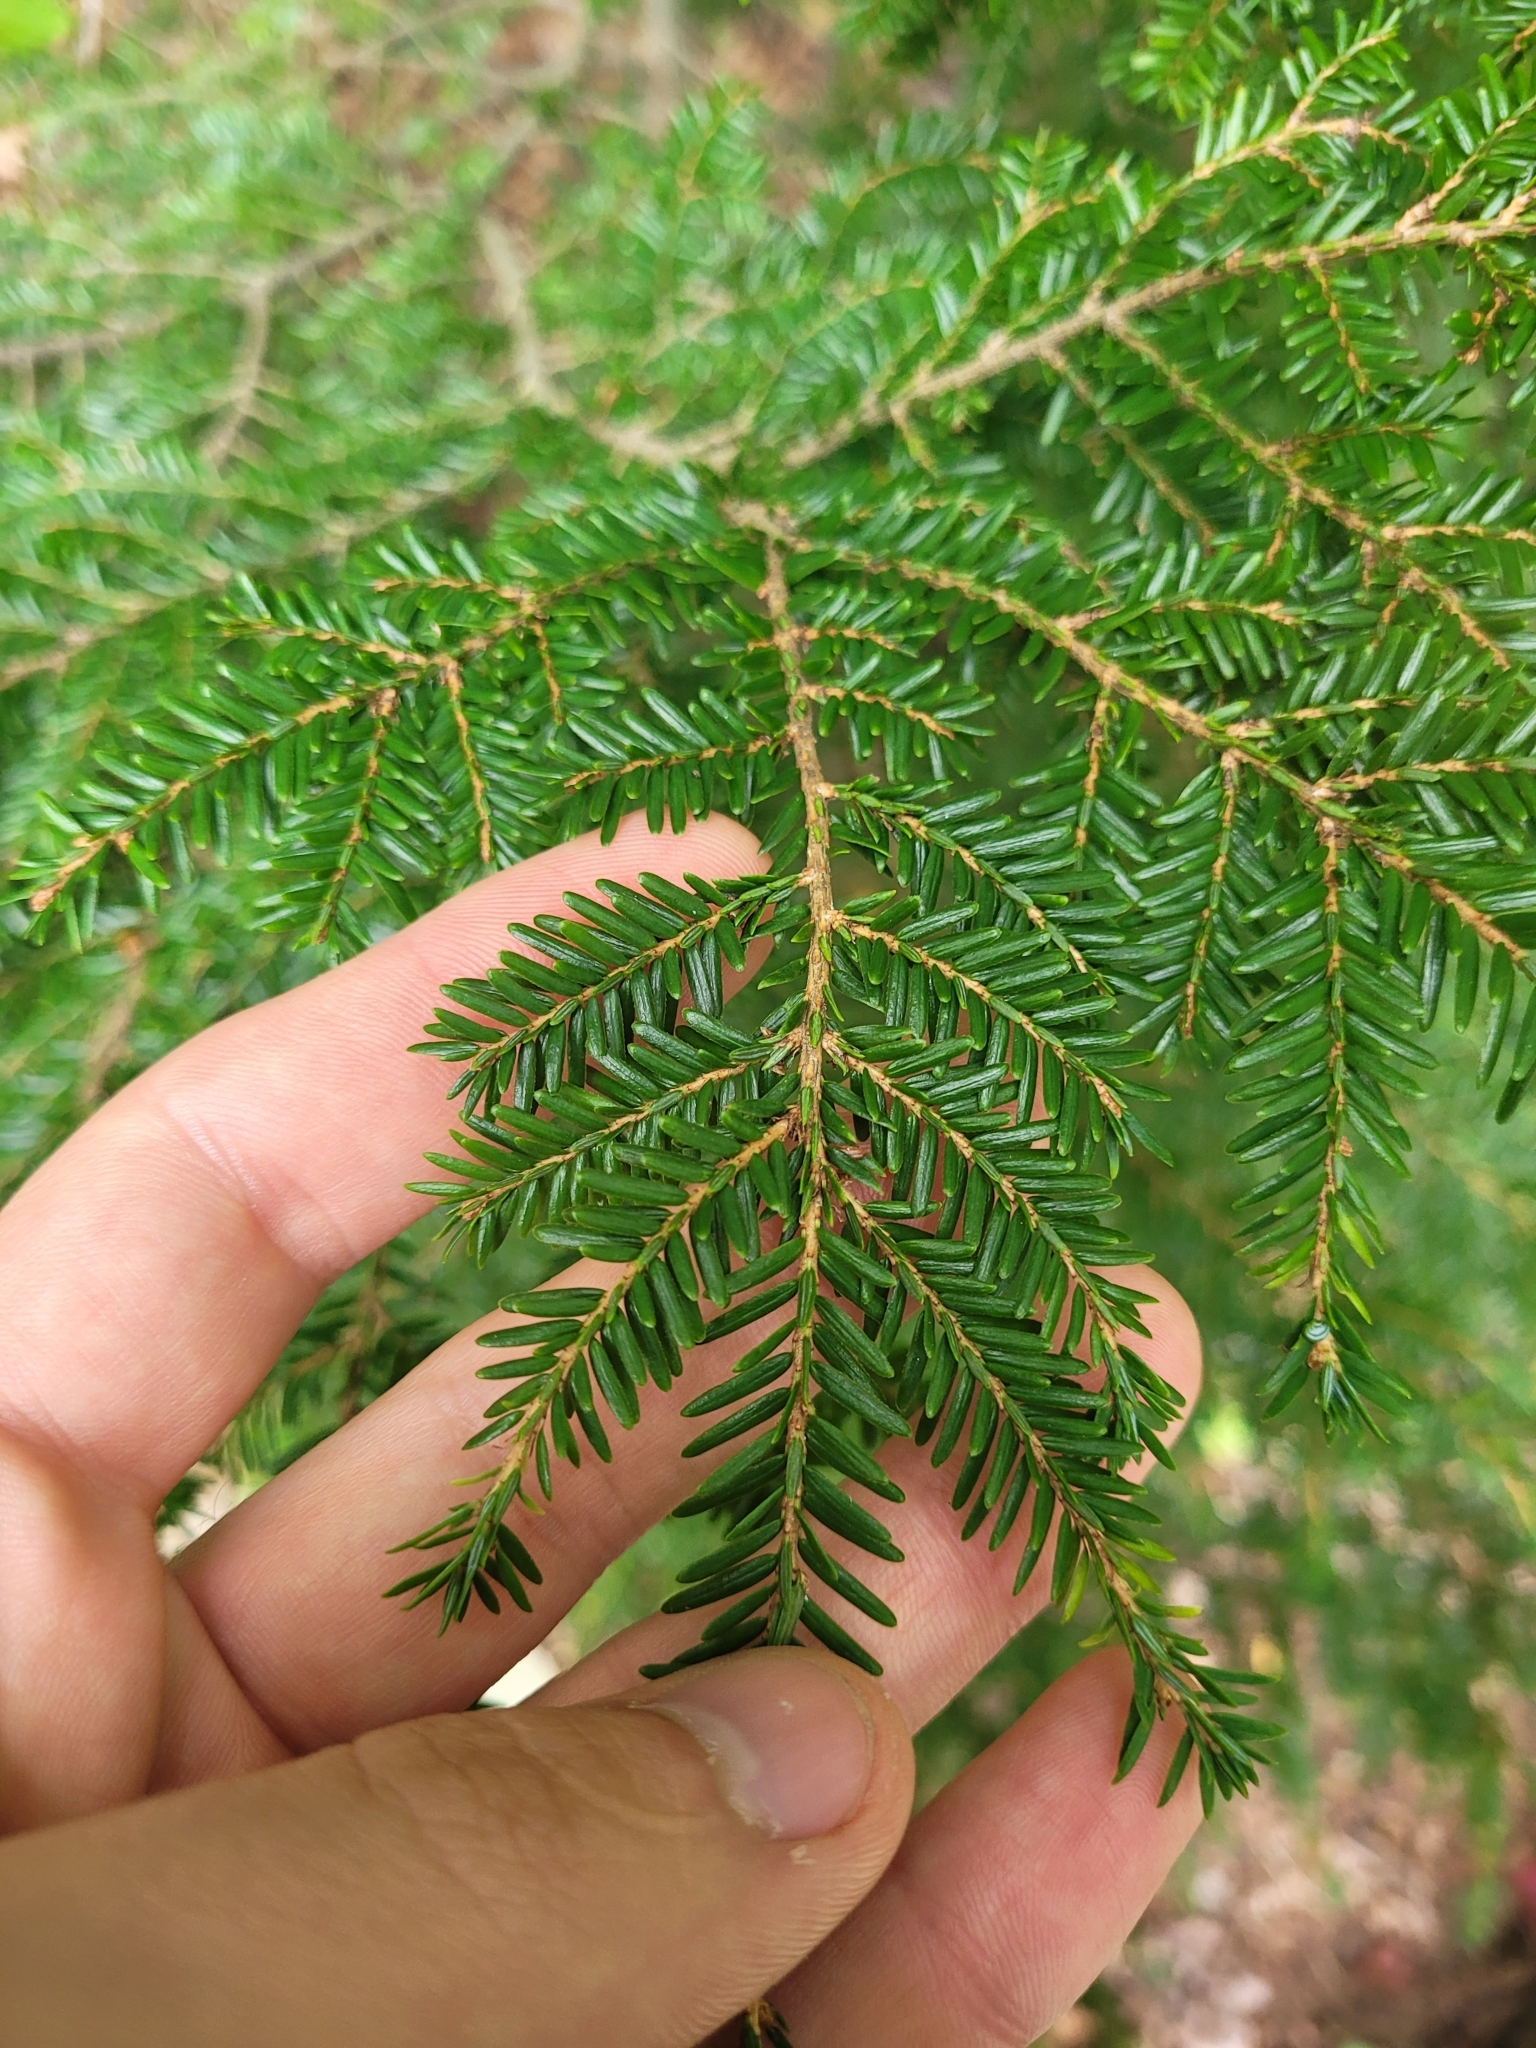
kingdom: Plantae
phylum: Tracheophyta
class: Pinopsida
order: Pinales
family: Pinaceae
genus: Tsuga
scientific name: Tsuga canadensis
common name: Eastern hemlock
